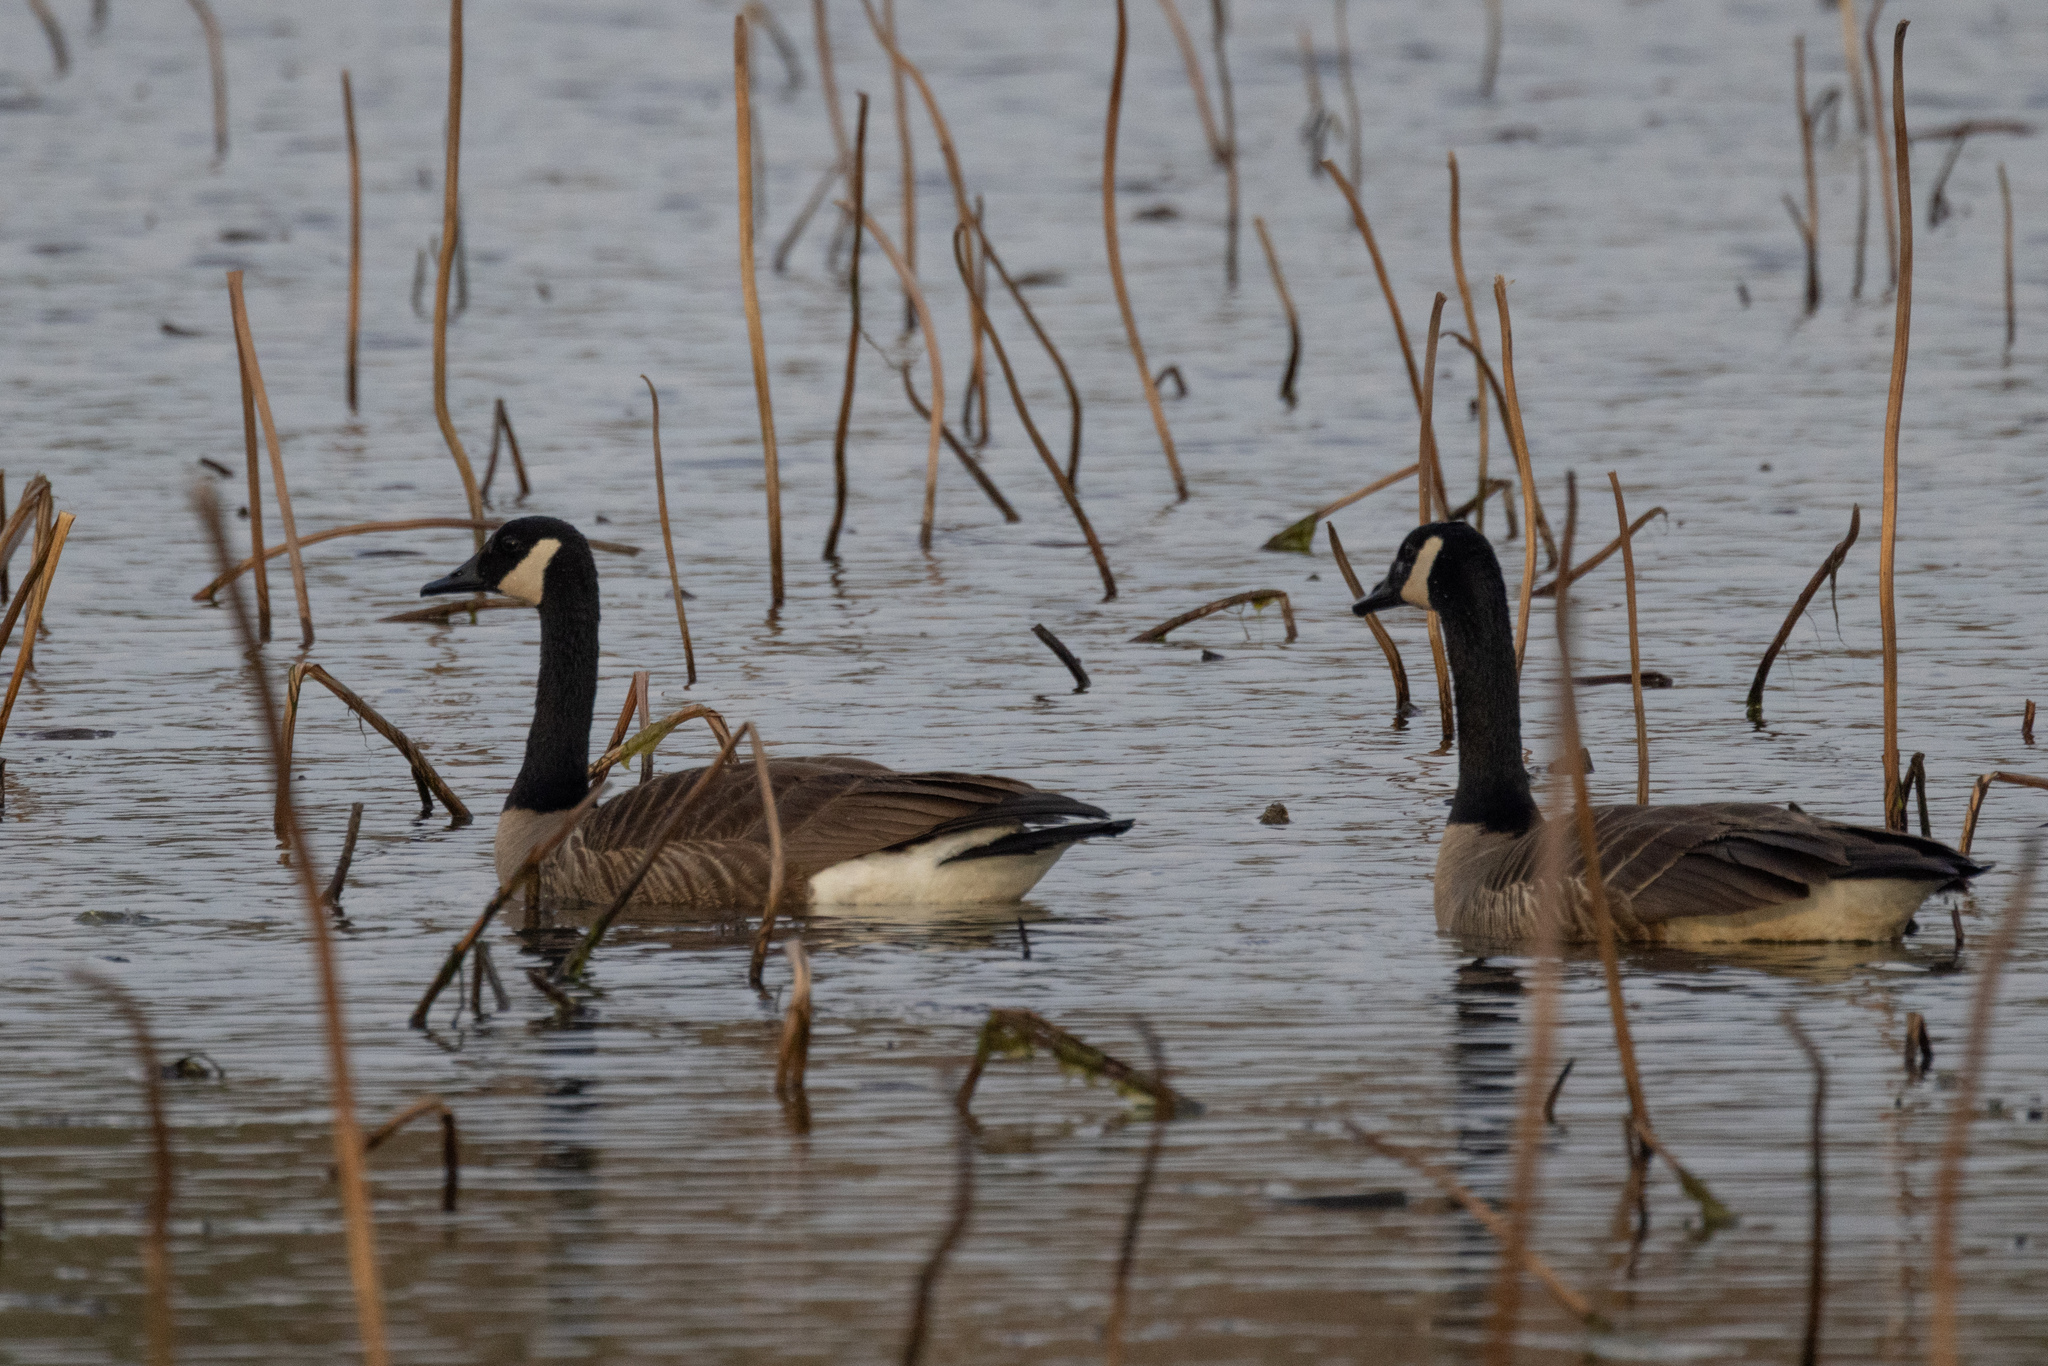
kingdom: Animalia
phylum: Chordata
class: Aves
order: Anseriformes
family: Anatidae
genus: Branta
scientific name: Branta canadensis
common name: Canada goose
